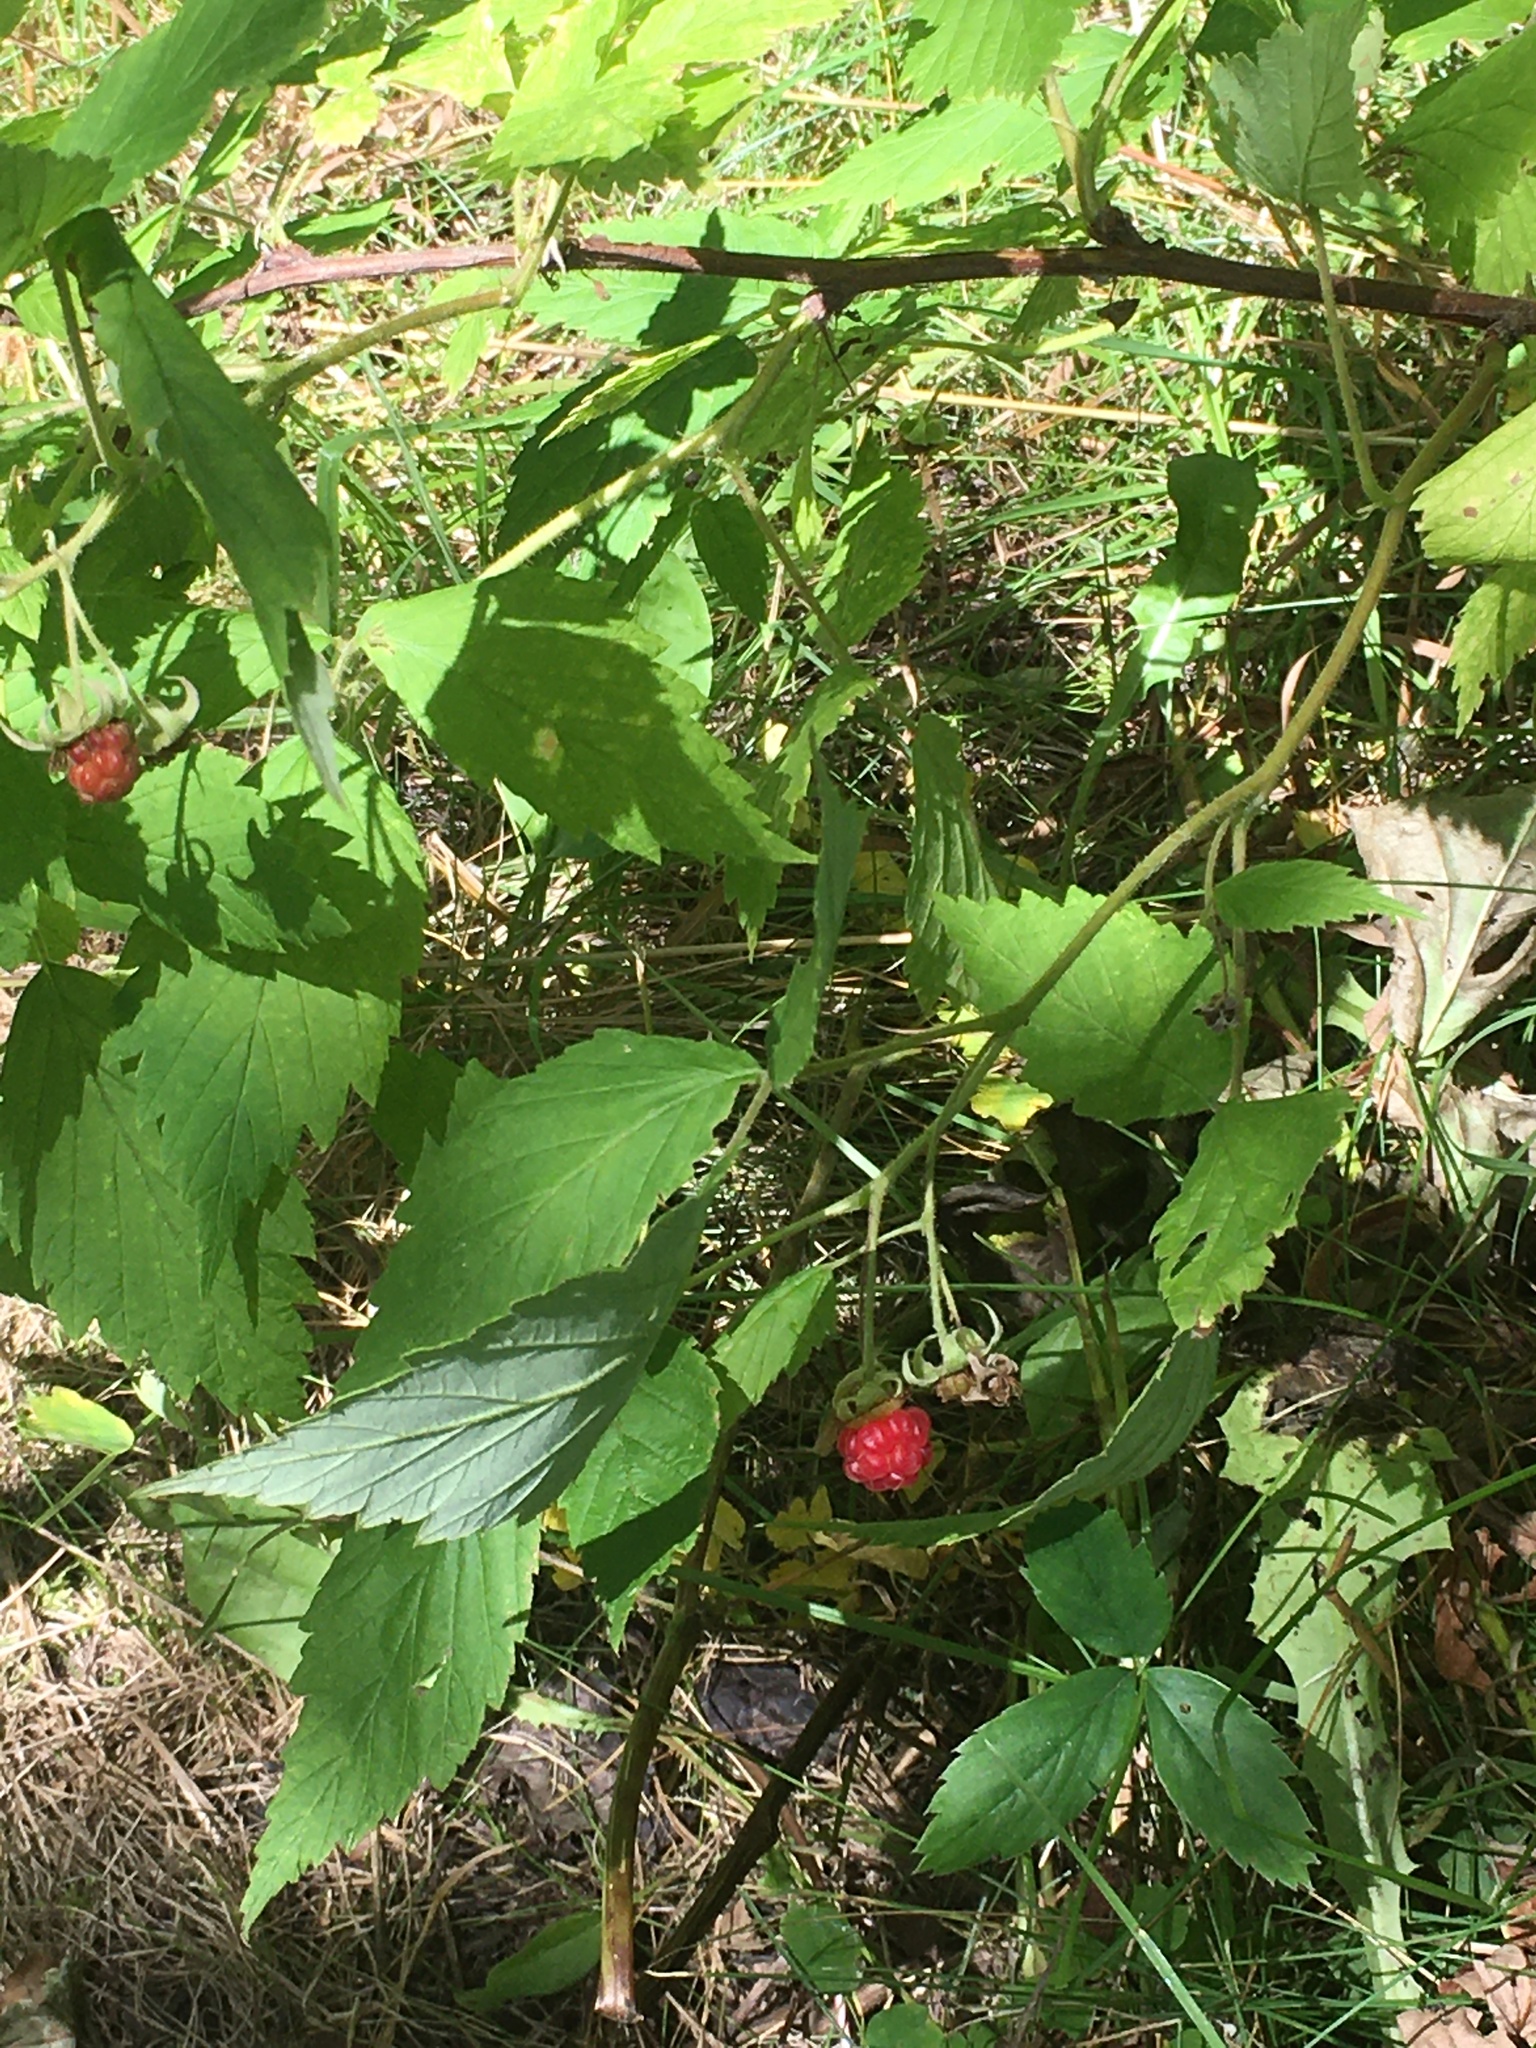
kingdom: Plantae
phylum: Tracheophyta
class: Magnoliopsida
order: Rosales
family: Rosaceae
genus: Rubus
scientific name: Rubus idaeus
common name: Raspberry
